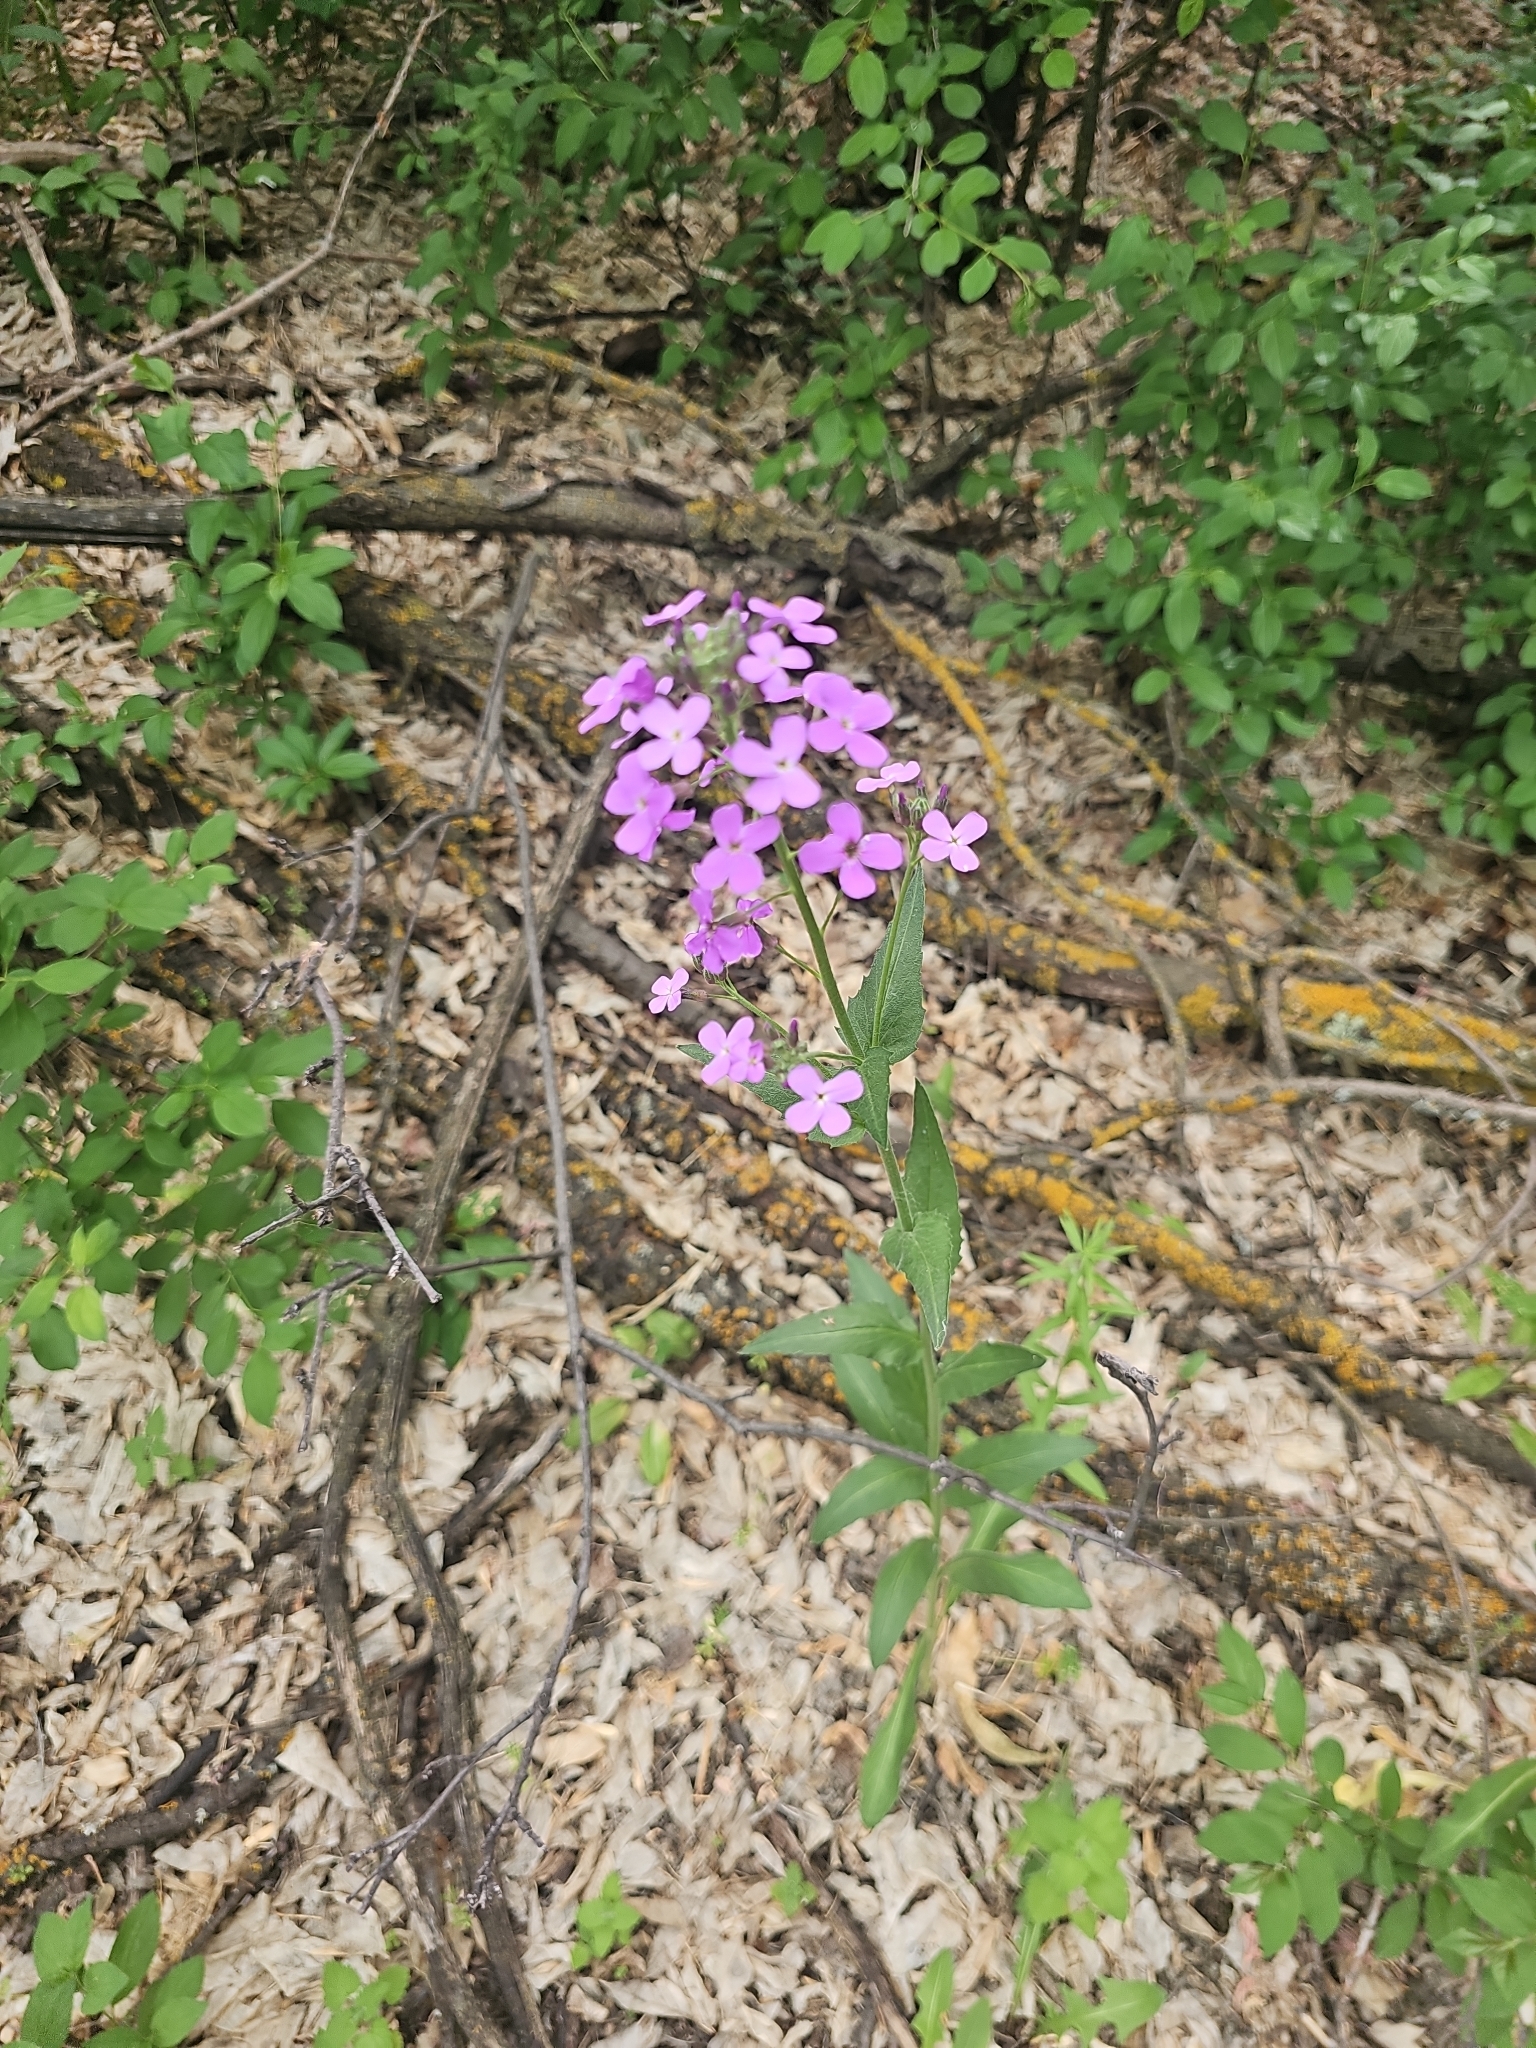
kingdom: Plantae
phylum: Tracheophyta
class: Magnoliopsida
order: Brassicales
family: Brassicaceae
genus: Hesperis
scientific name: Hesperis matronalis
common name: Dame's-violet
